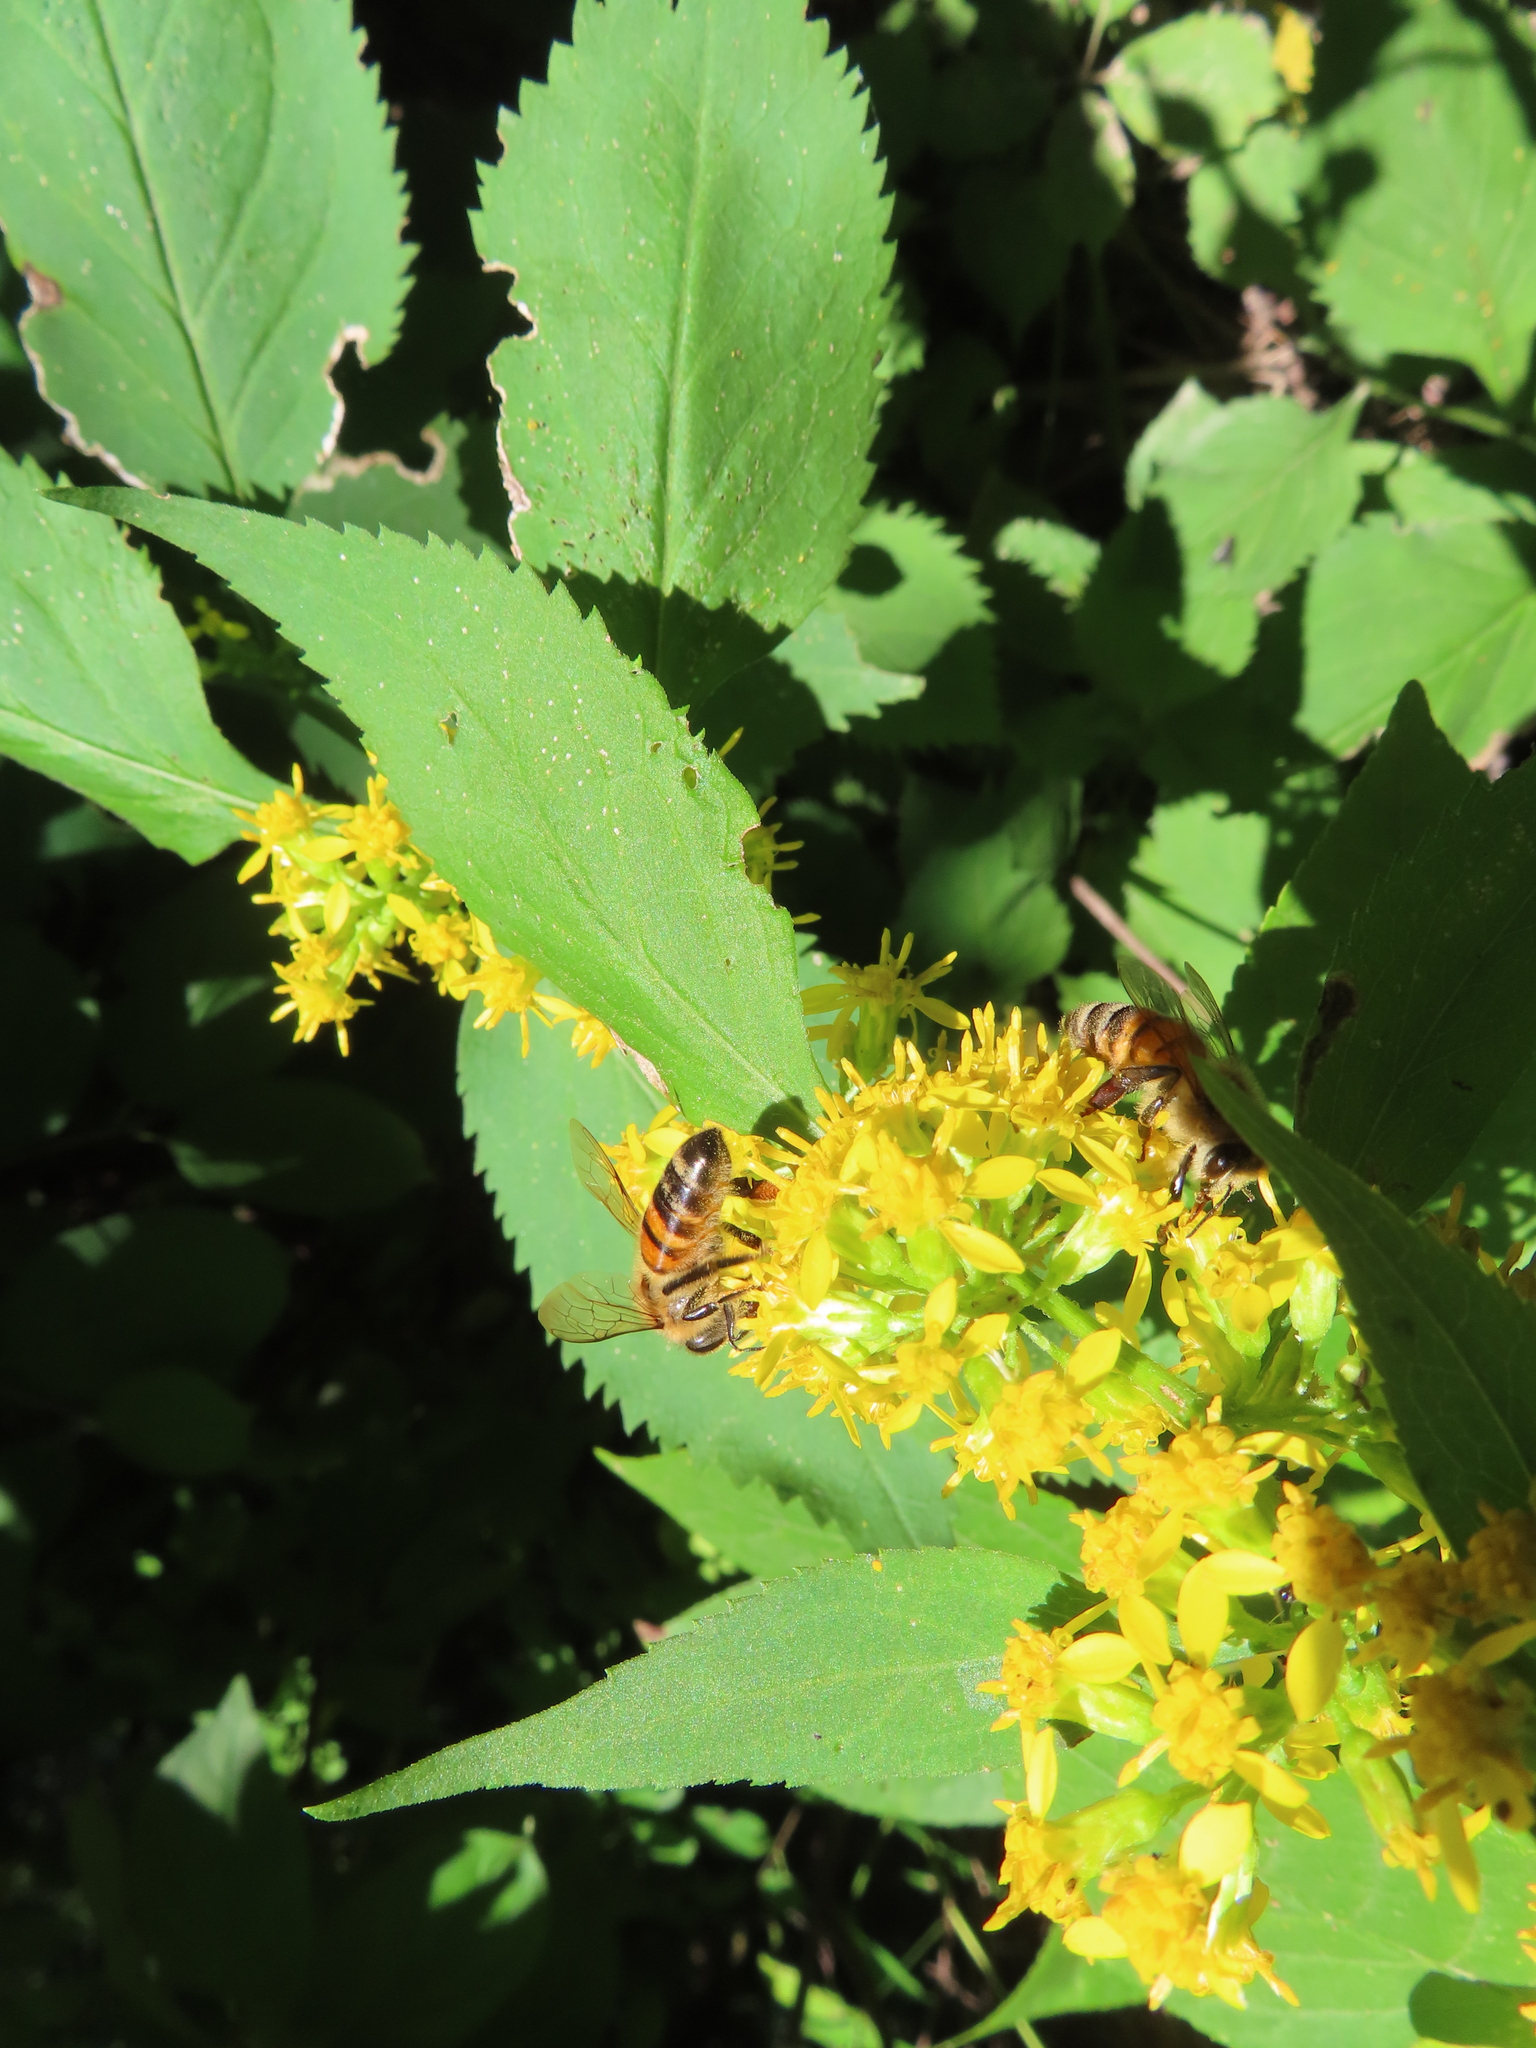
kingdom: Animalia
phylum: Arthropoda
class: Insecta
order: Hymenoptera
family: Apidae
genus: Apis
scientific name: Apis mellifera
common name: Honey bee
